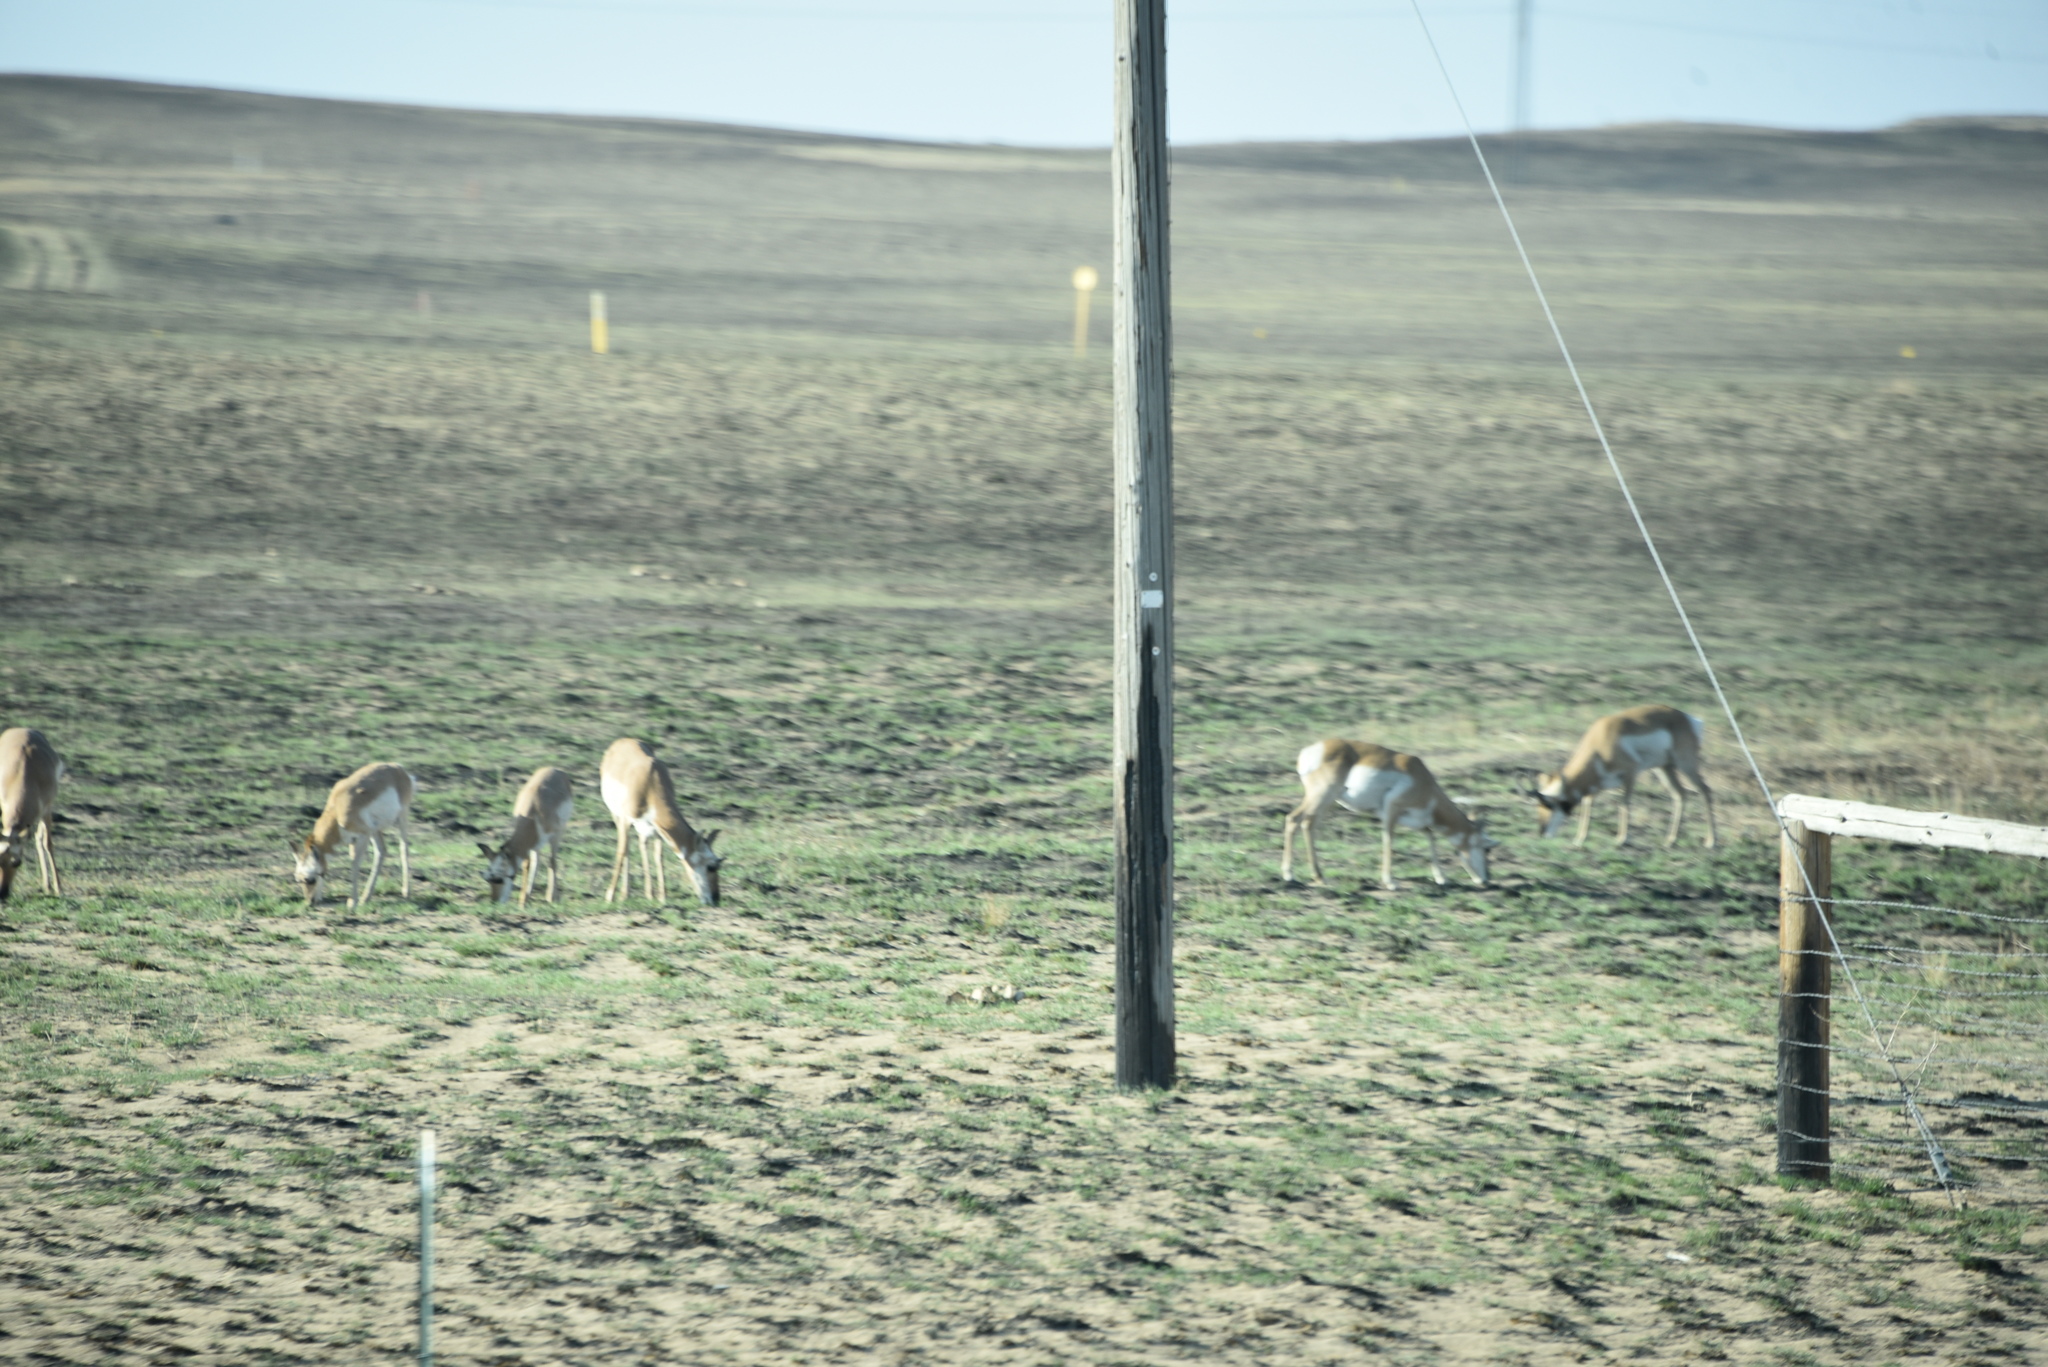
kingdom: Animalia
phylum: Chordata
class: Mammalia
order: Artiodactyla
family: Antilocapridae
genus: Antilocapra
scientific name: Antilocapra americana
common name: Pronghorn
